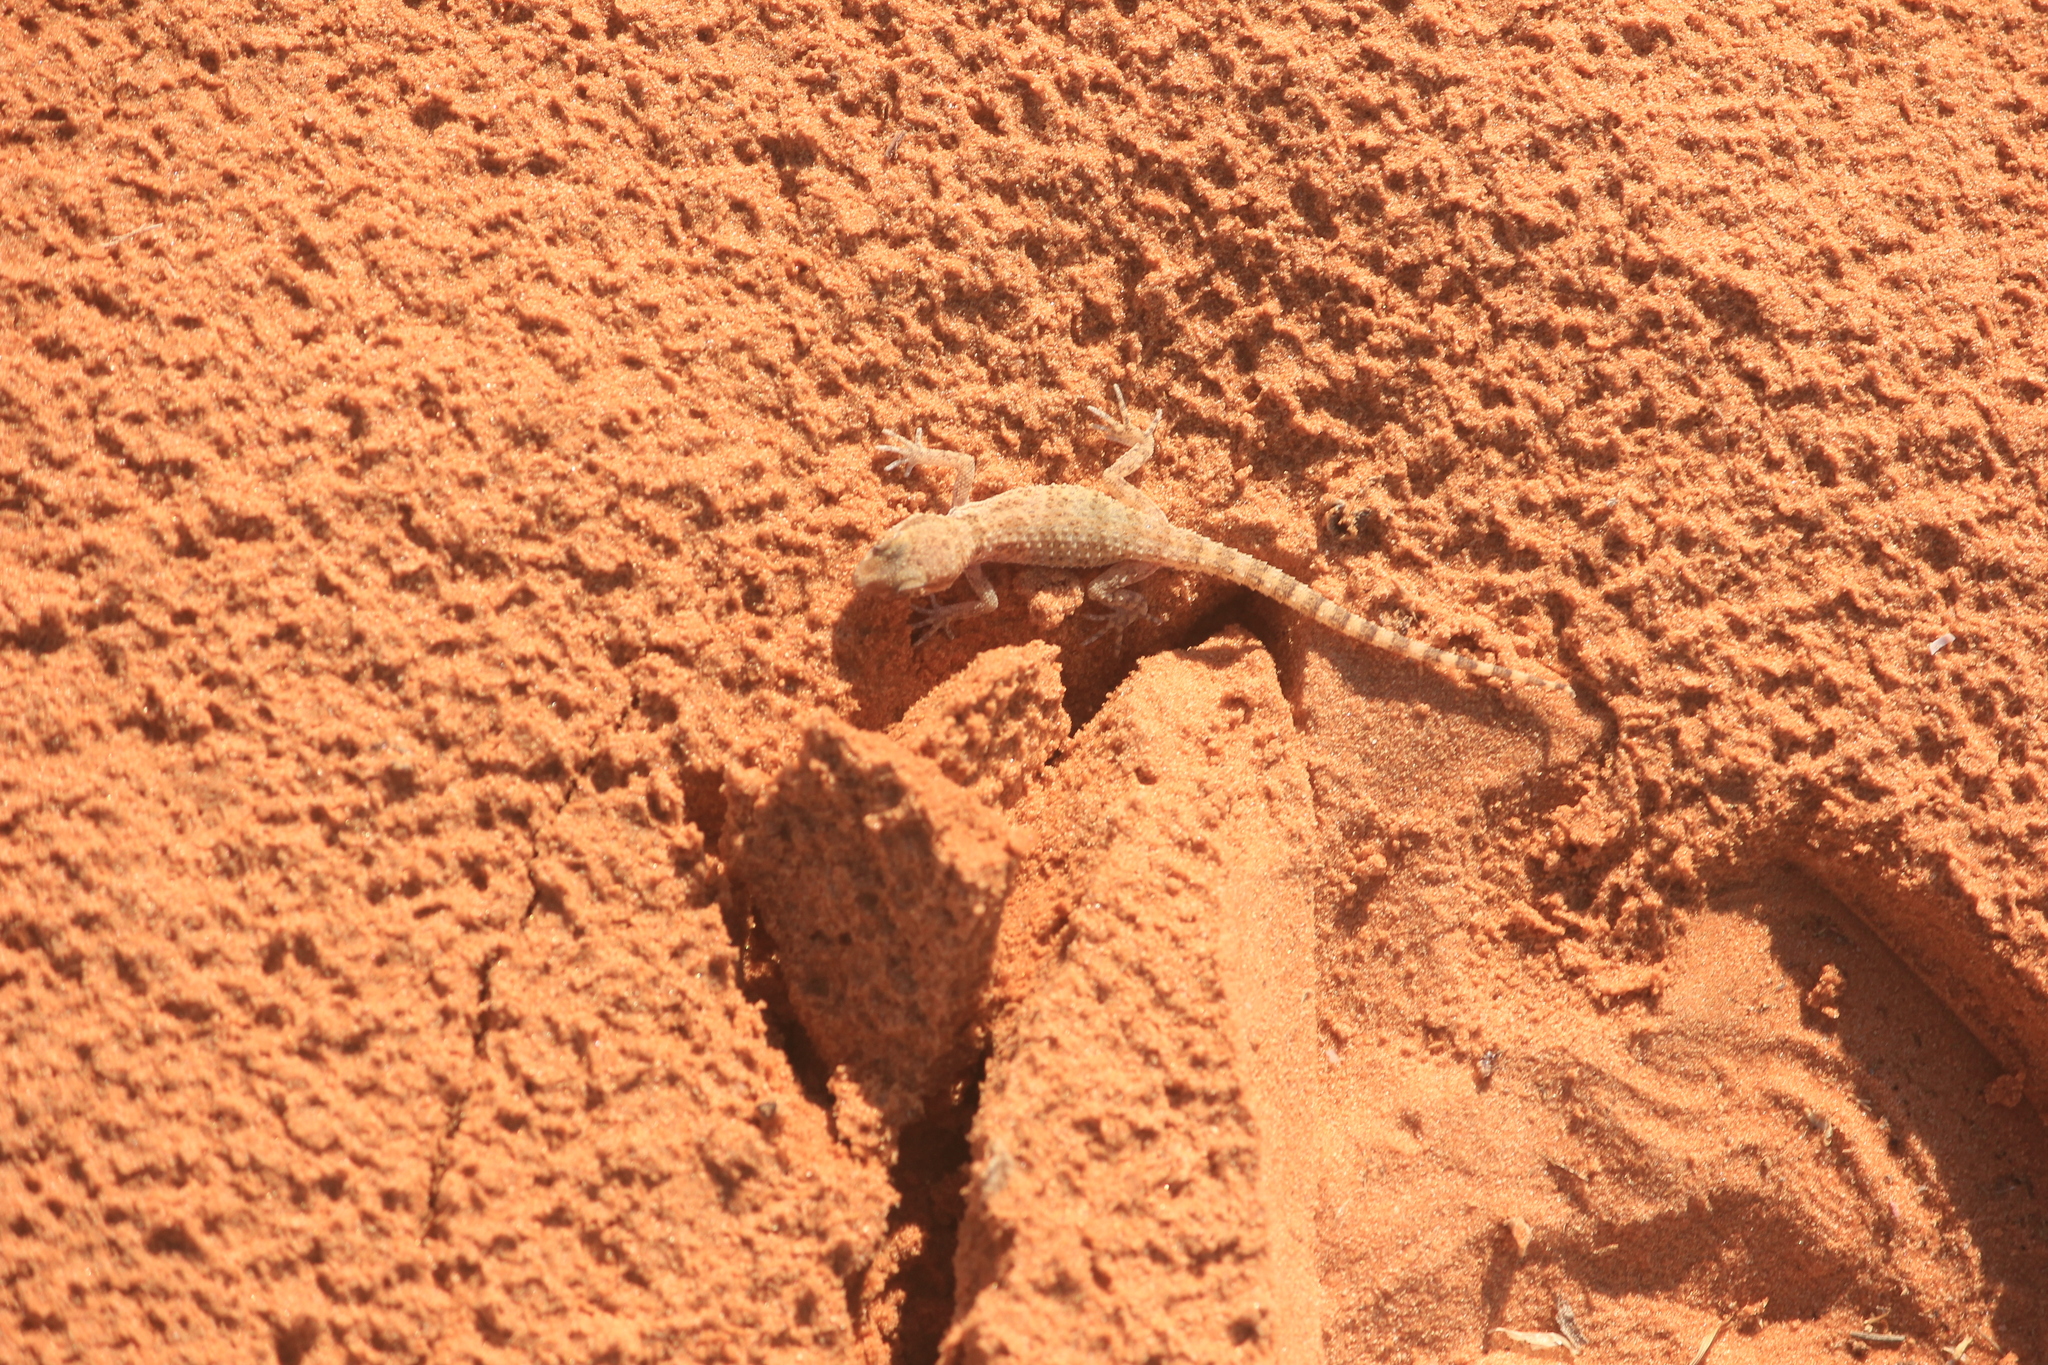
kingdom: Animalia
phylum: Chordata
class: Squamata
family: Gekkonidae
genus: Bunopus
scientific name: Bunopus tuberculatus
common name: Southern tuberculated gecko
